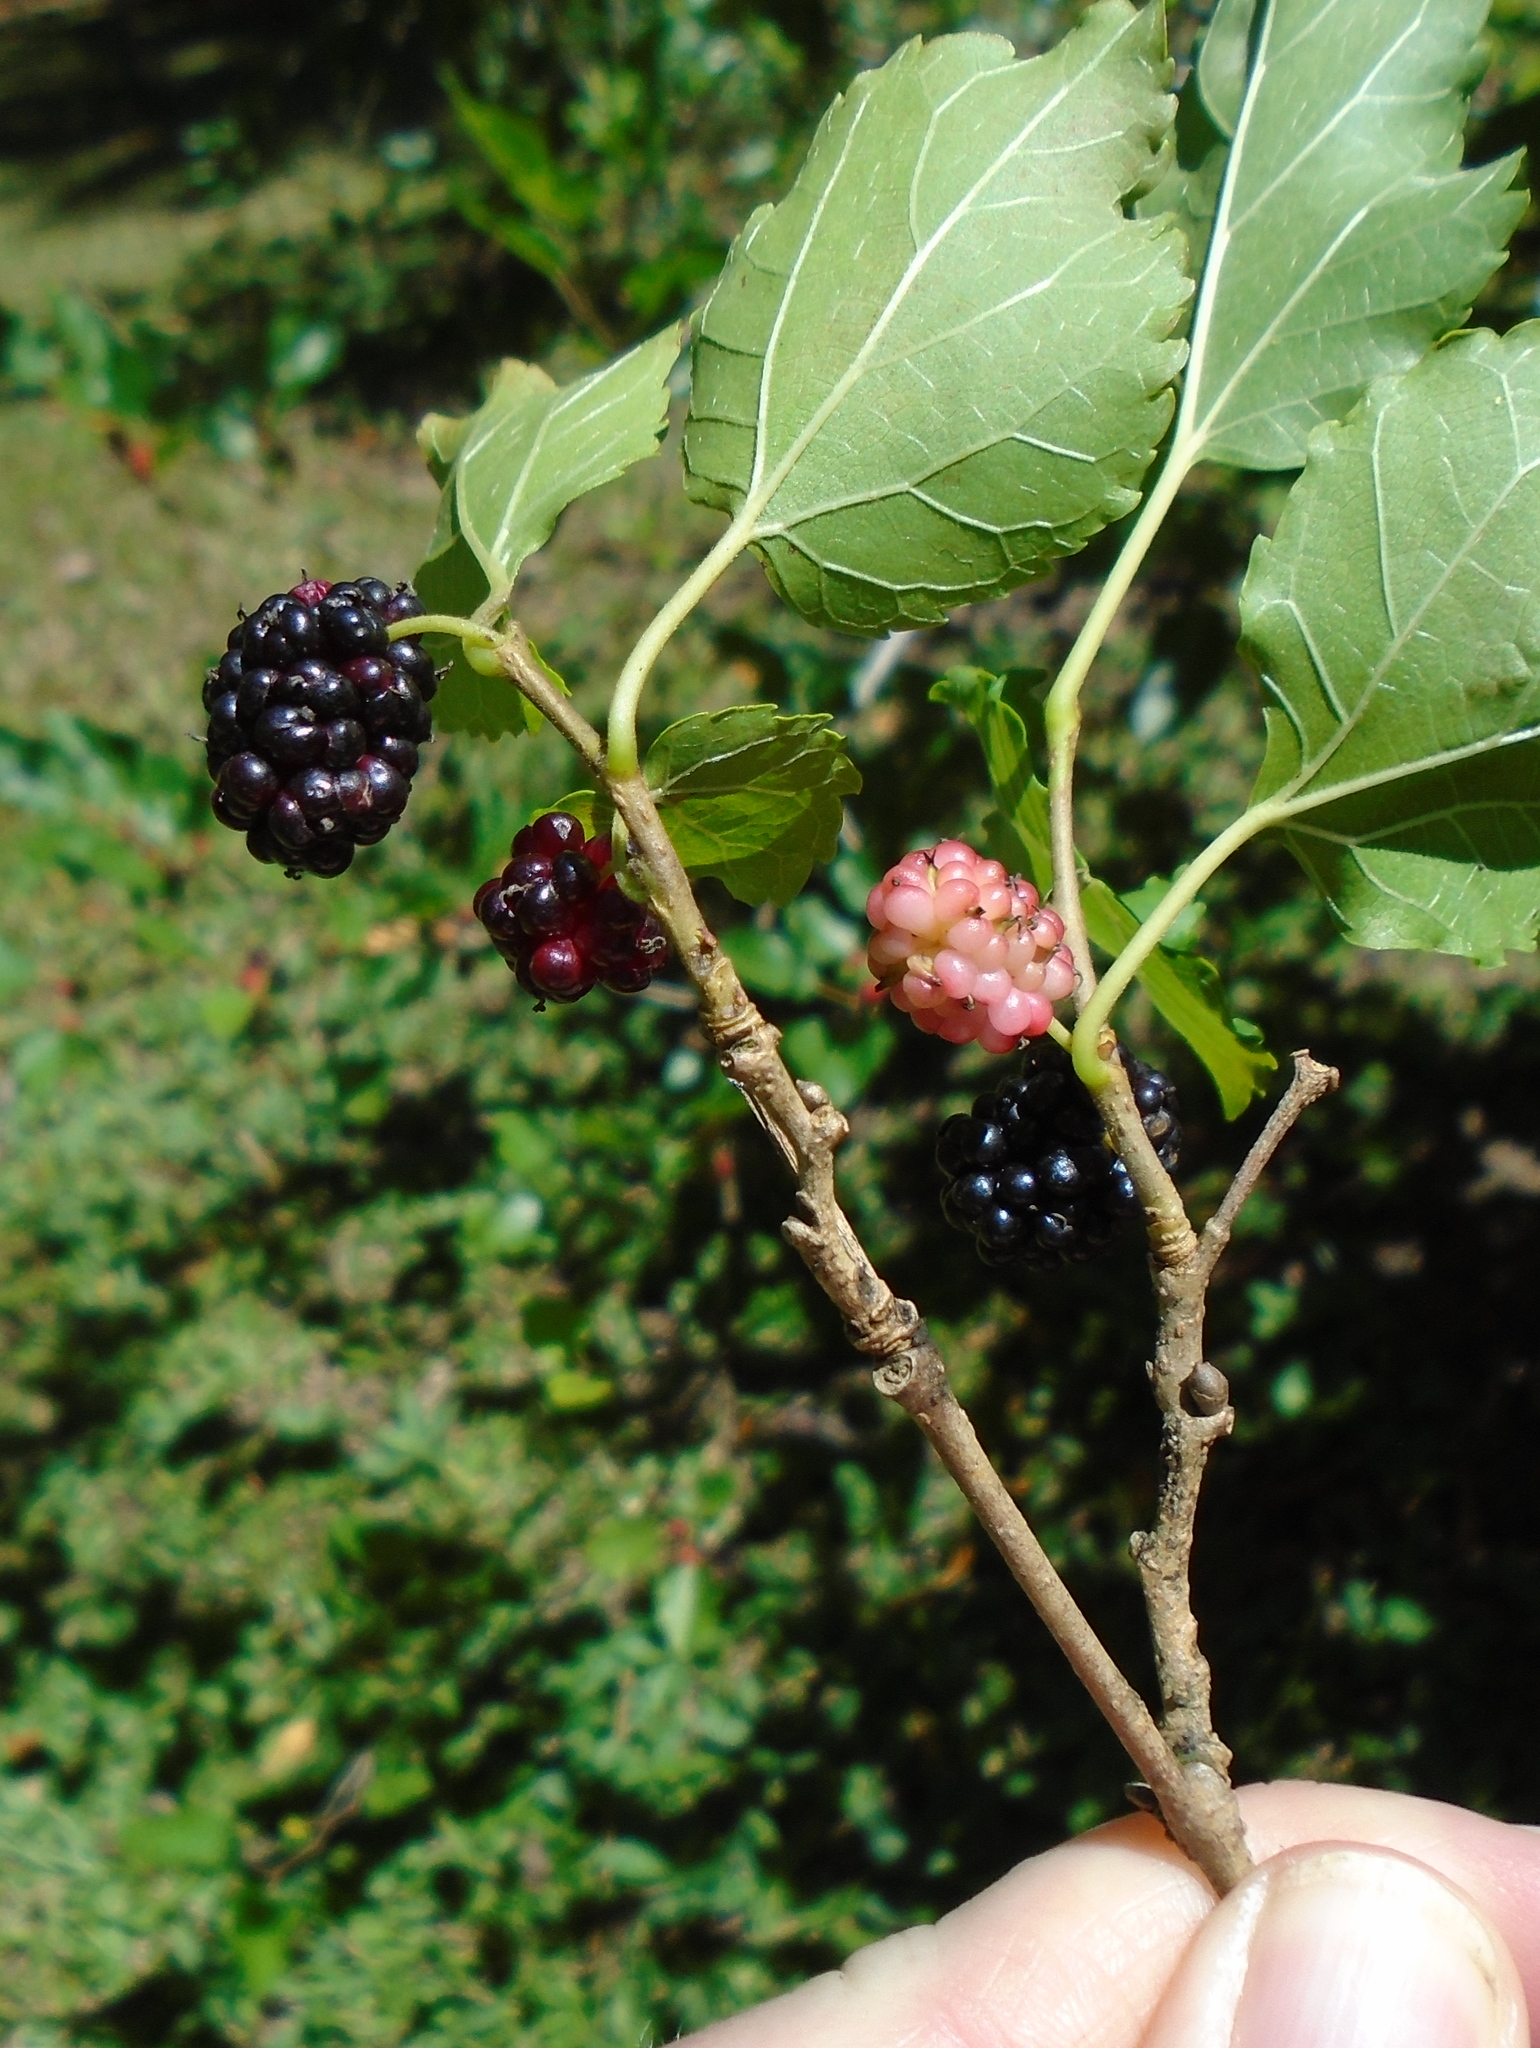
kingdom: Plantae
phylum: Tracheophyta
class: Magnoliopsida
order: Rosales
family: Moraceae
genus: Morus
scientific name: Morus nigra
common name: Black mulberry
